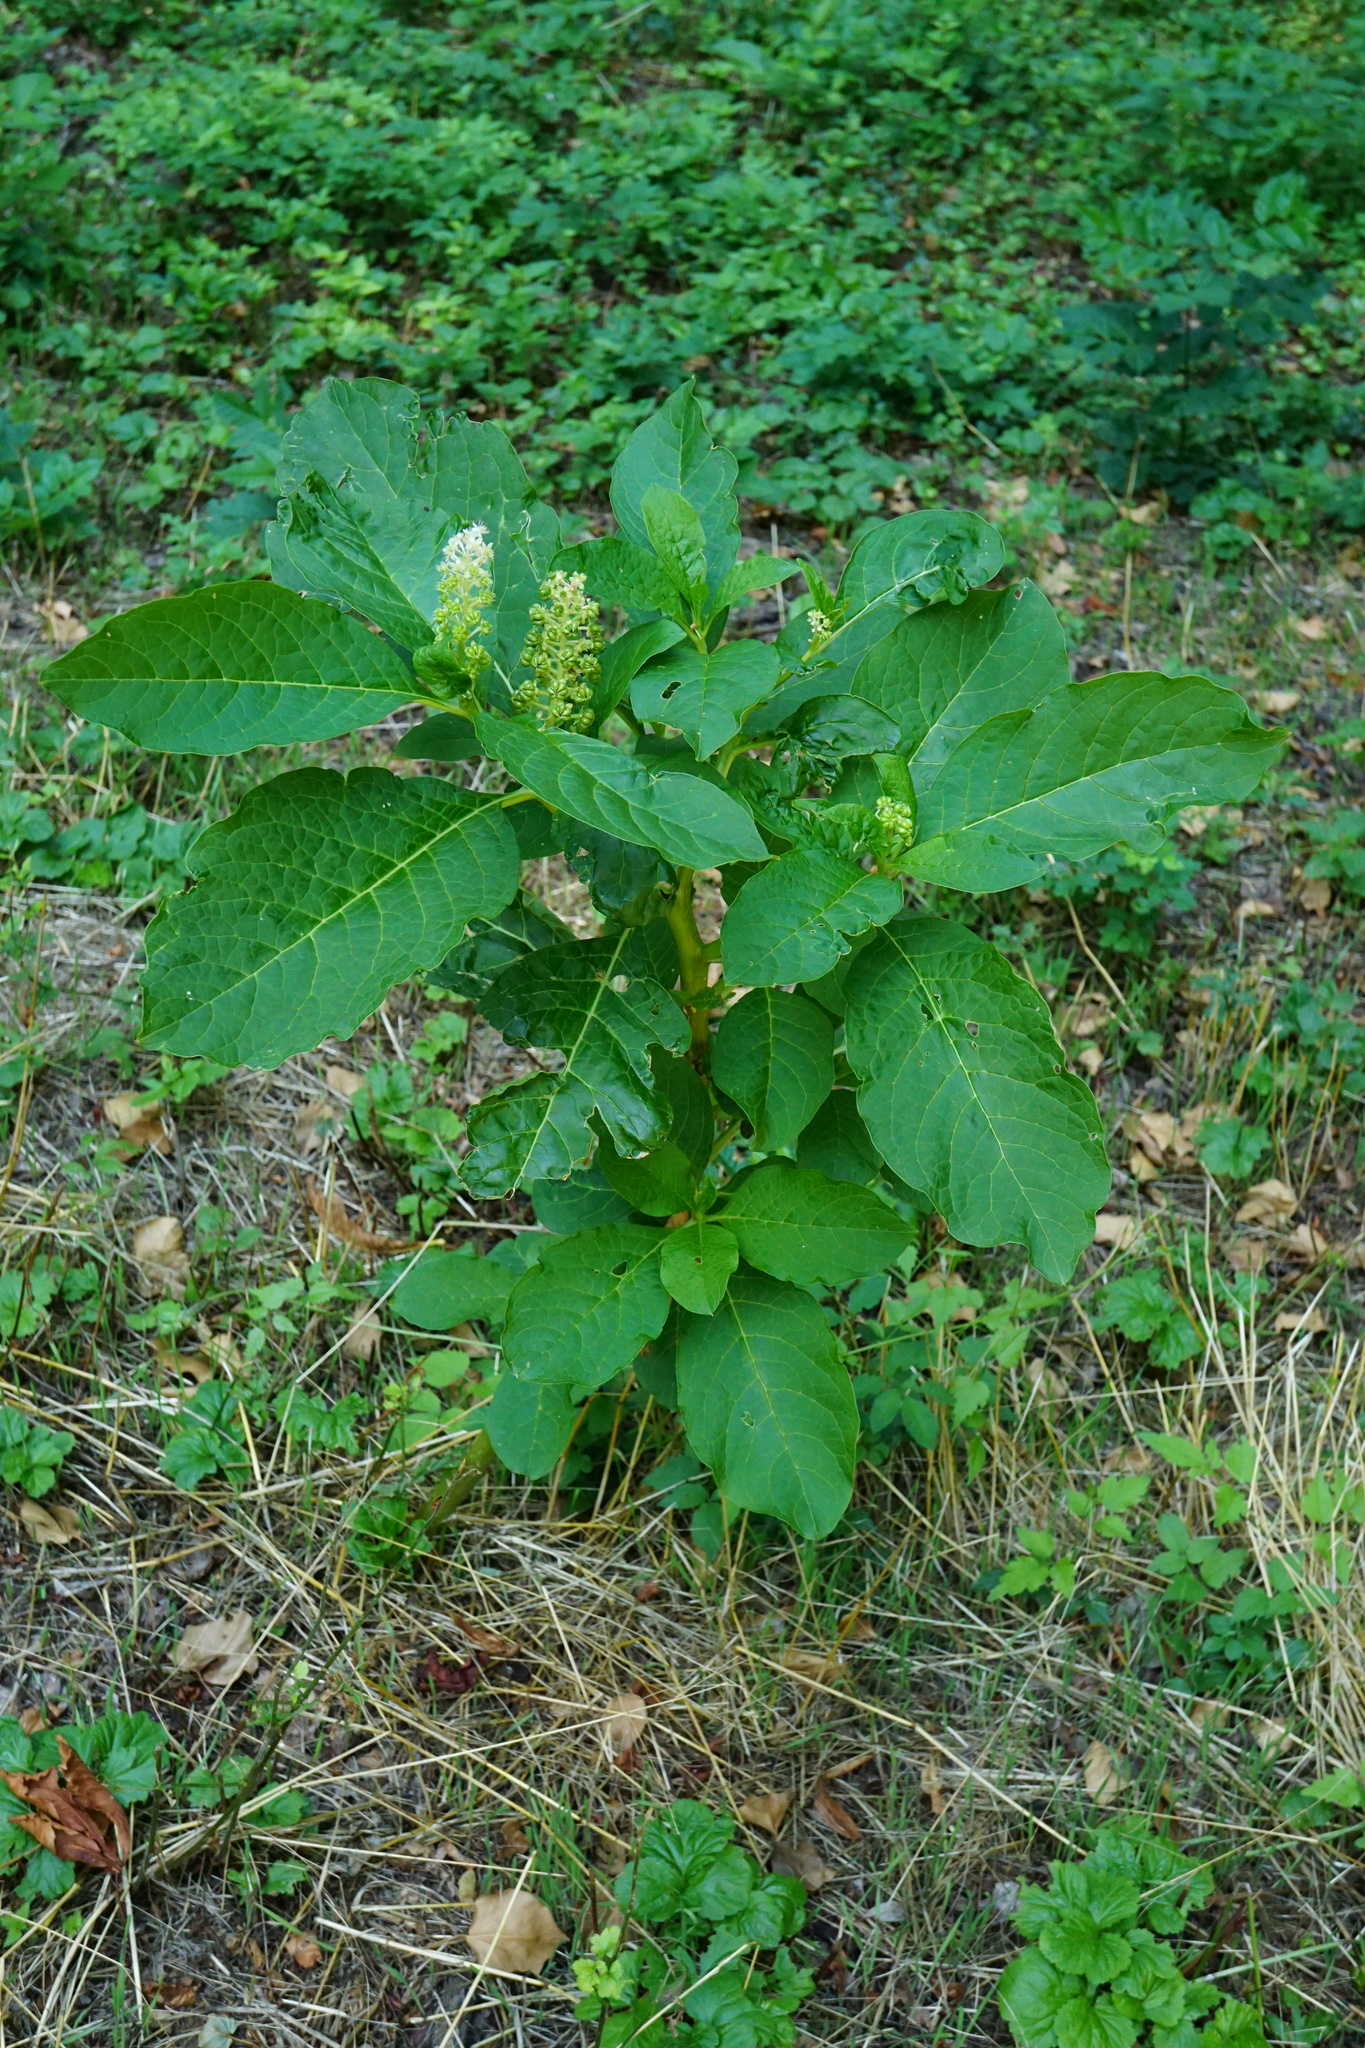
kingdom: Plantae
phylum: Tracheophyta
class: Magnoliopsida
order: Caryophyllales
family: Phytolaccaceae
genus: Phytolacca
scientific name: Phytolacca acinosa
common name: Indian pokeweed
